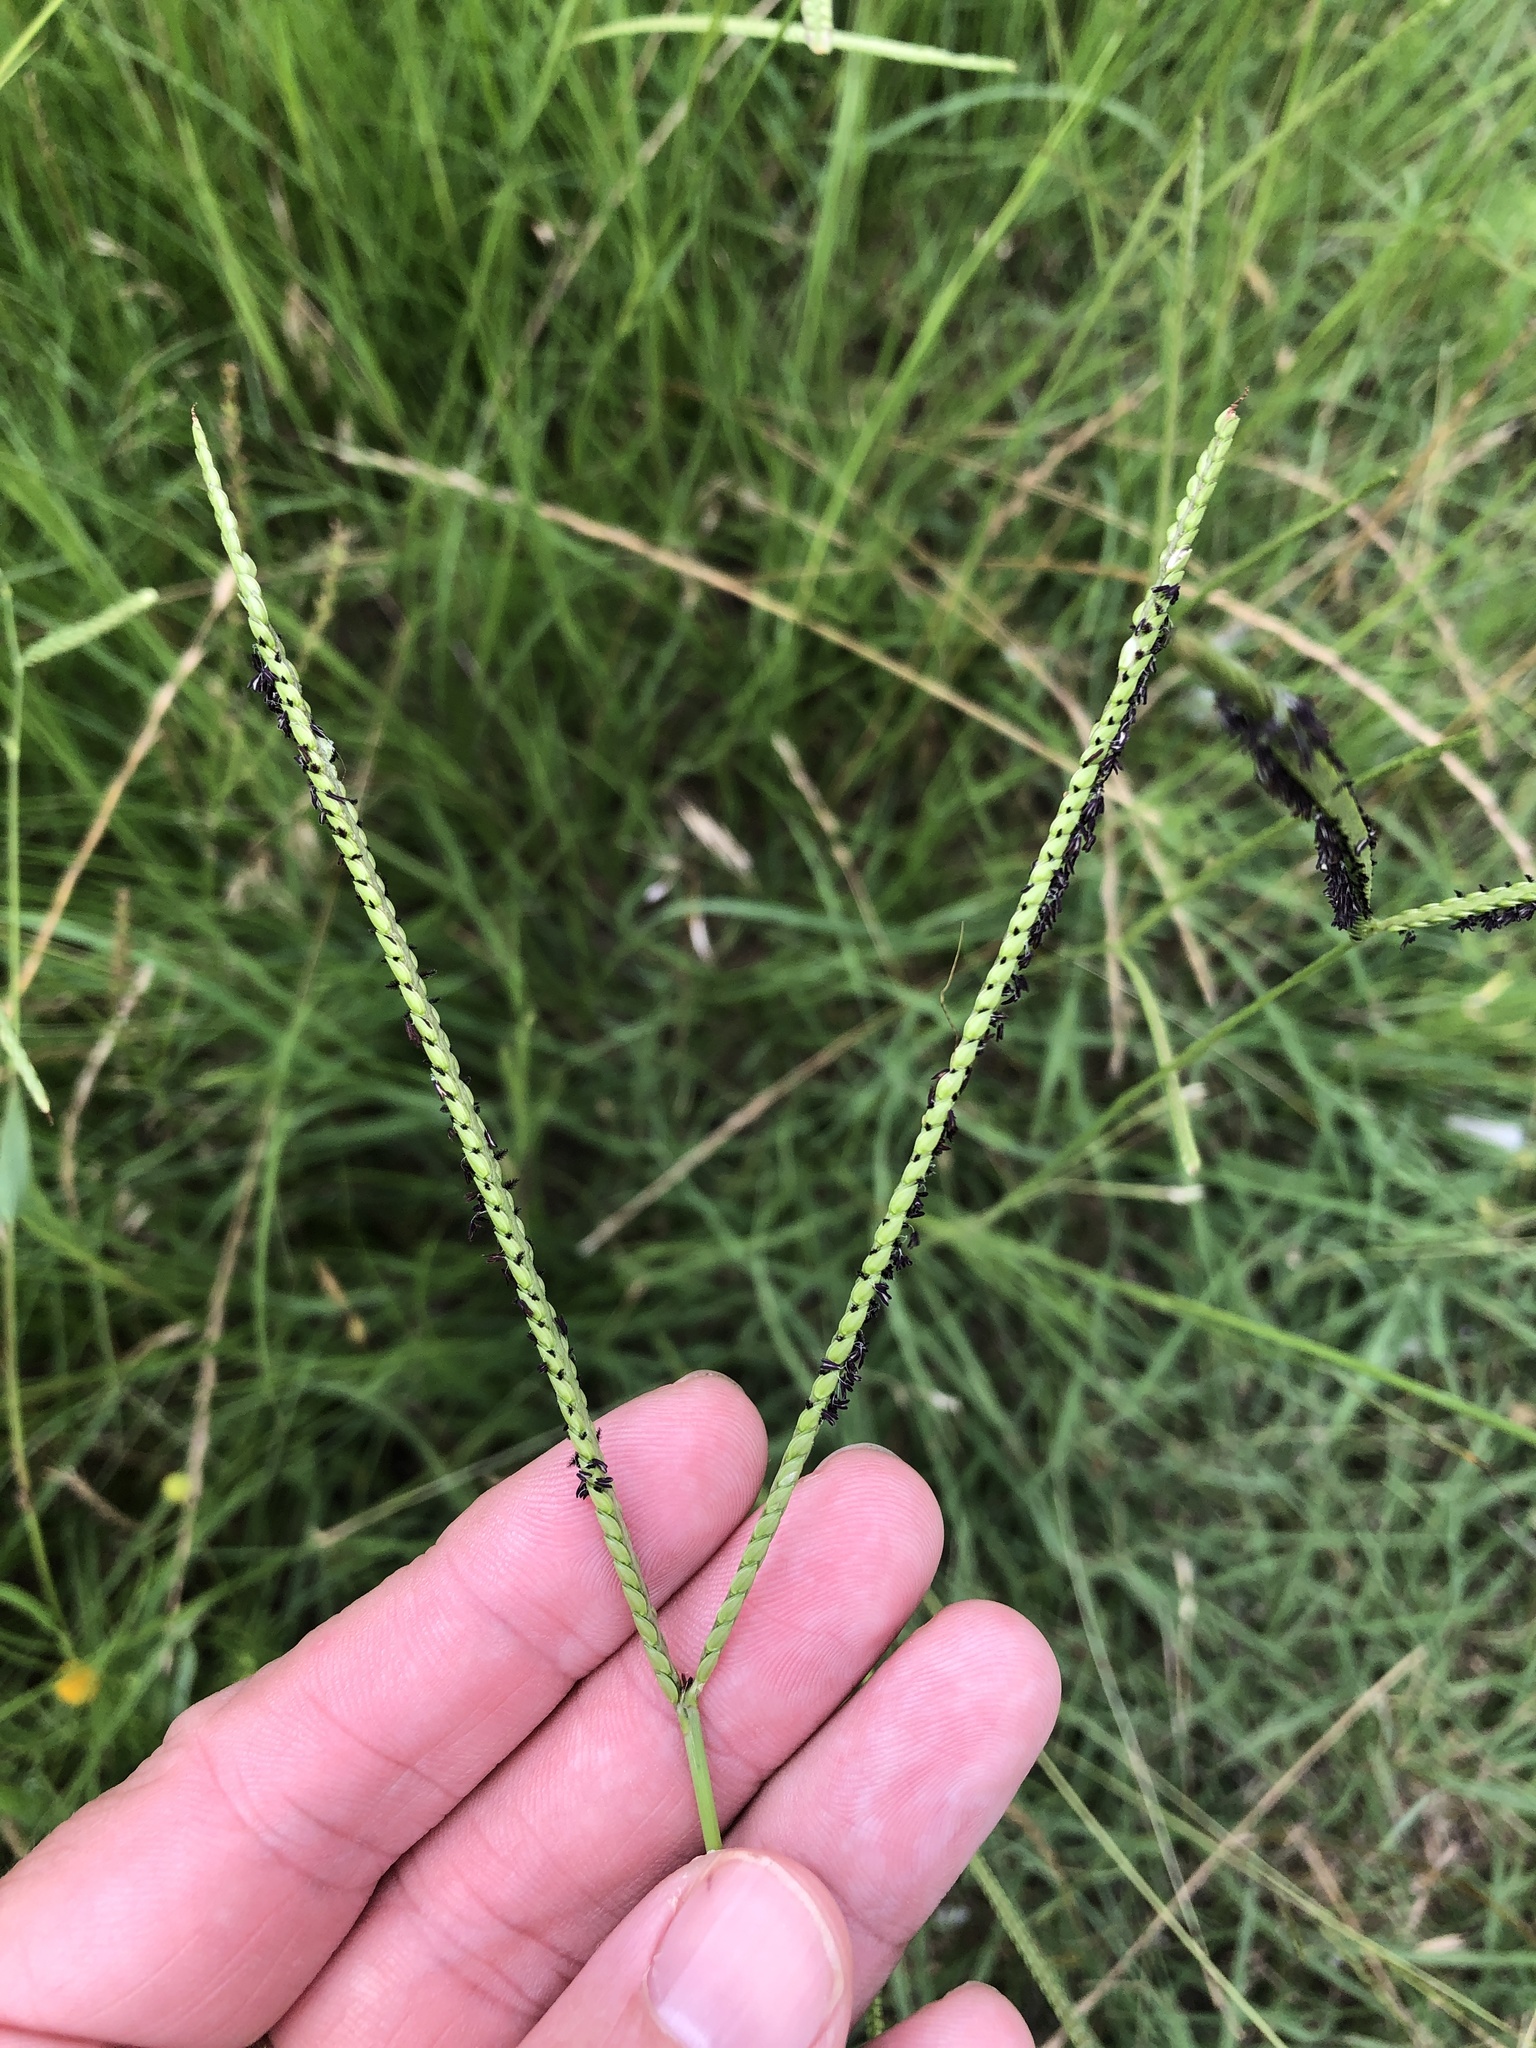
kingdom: Plantae
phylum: Tracheophyta
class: Liliopsida
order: Poales
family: Poaceae
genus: Paspalum
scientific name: Paspalum notatum
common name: Bahiagrass
